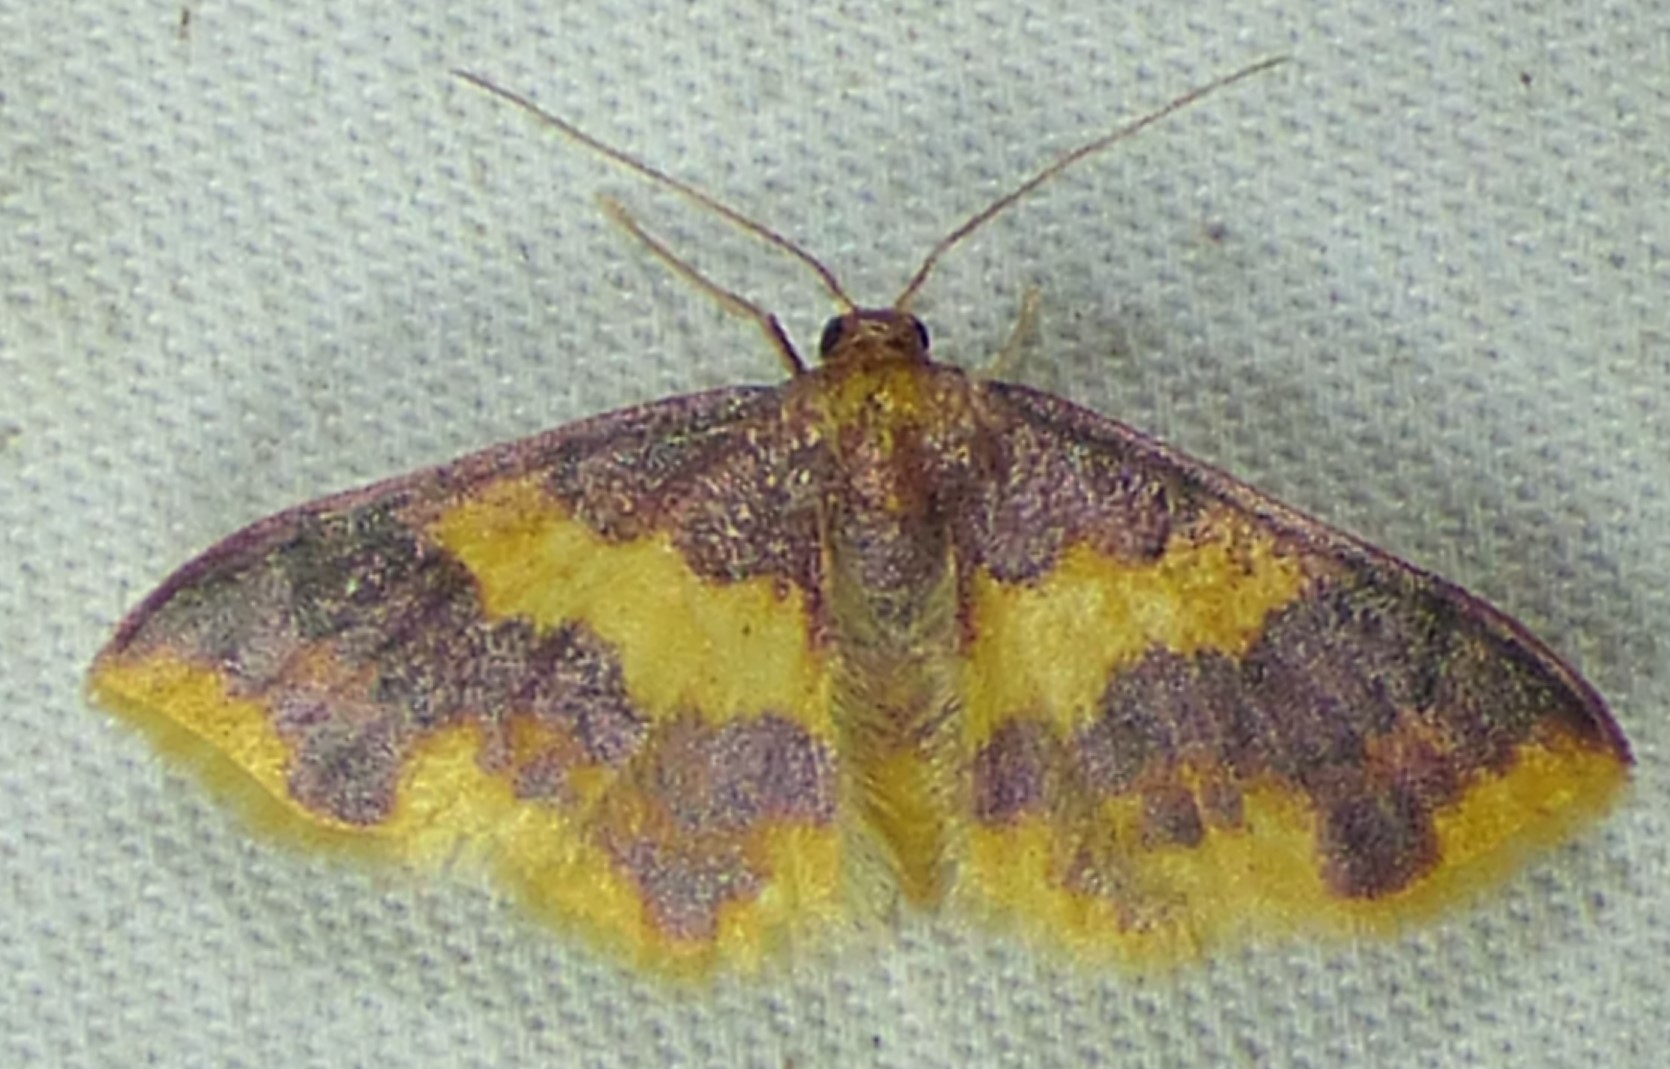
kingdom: Animalia
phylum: Arthropoda
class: Insecta
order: Lepidoptera
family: Geometridae
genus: Lophosis
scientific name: Lophosis labeculata
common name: Stained lophosis moth
